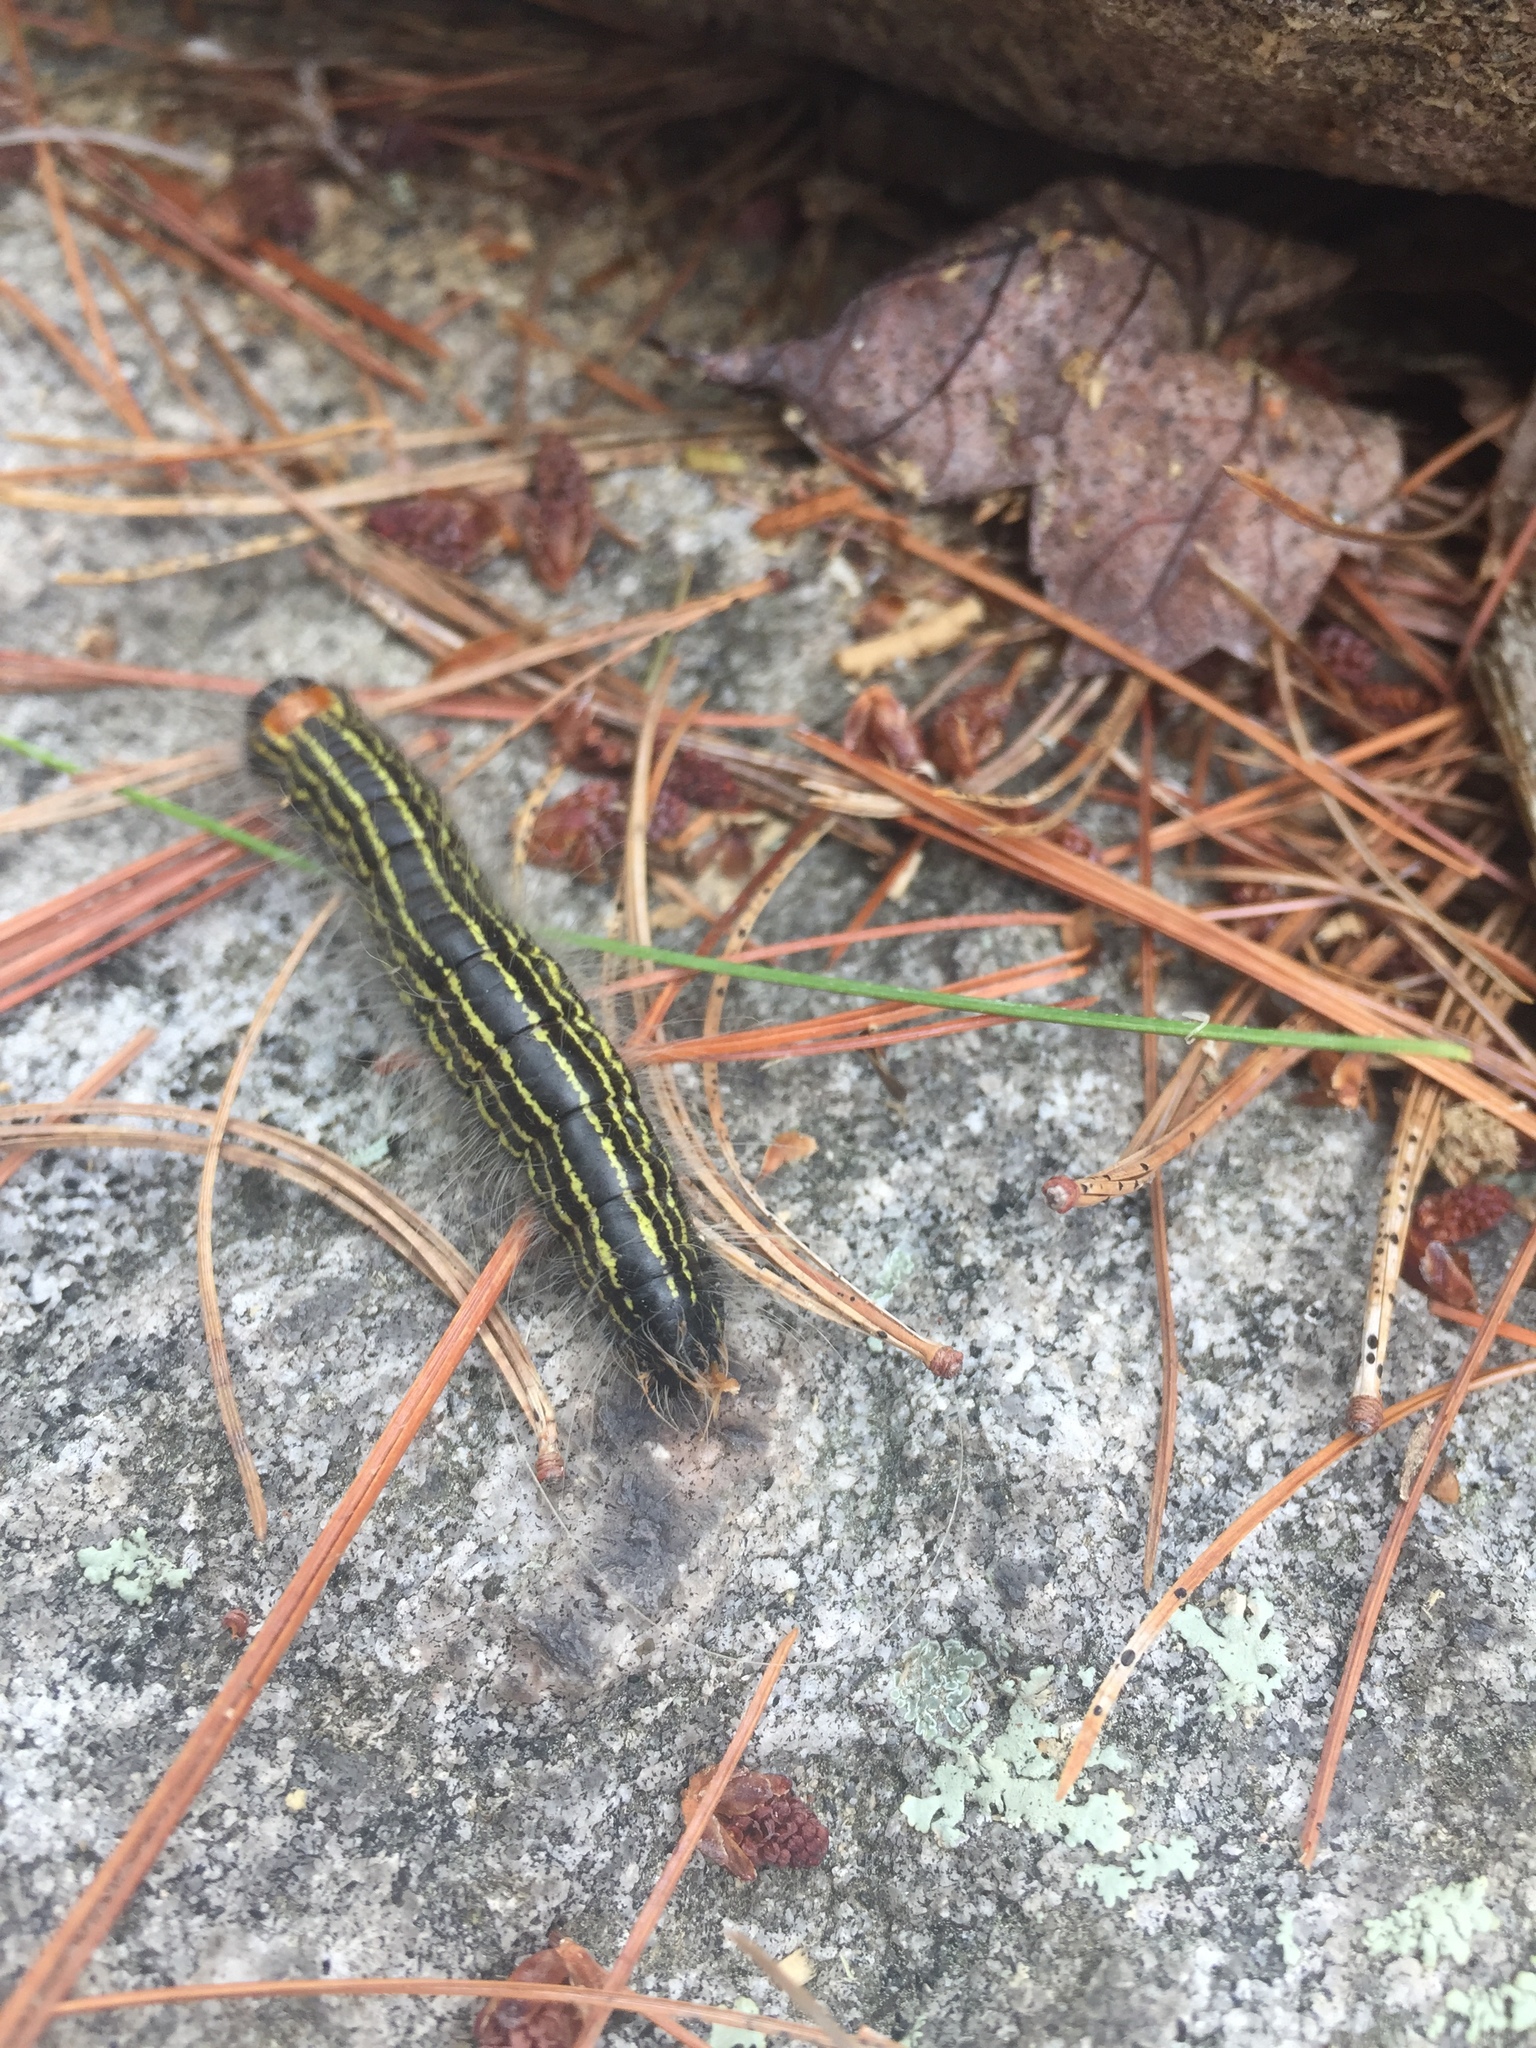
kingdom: Animalia
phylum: Arthropoda
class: Insecta
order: Lepidoptera
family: Notodontidae
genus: Datana
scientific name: Datana ministra
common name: Yellow-necked caterpillar moth
